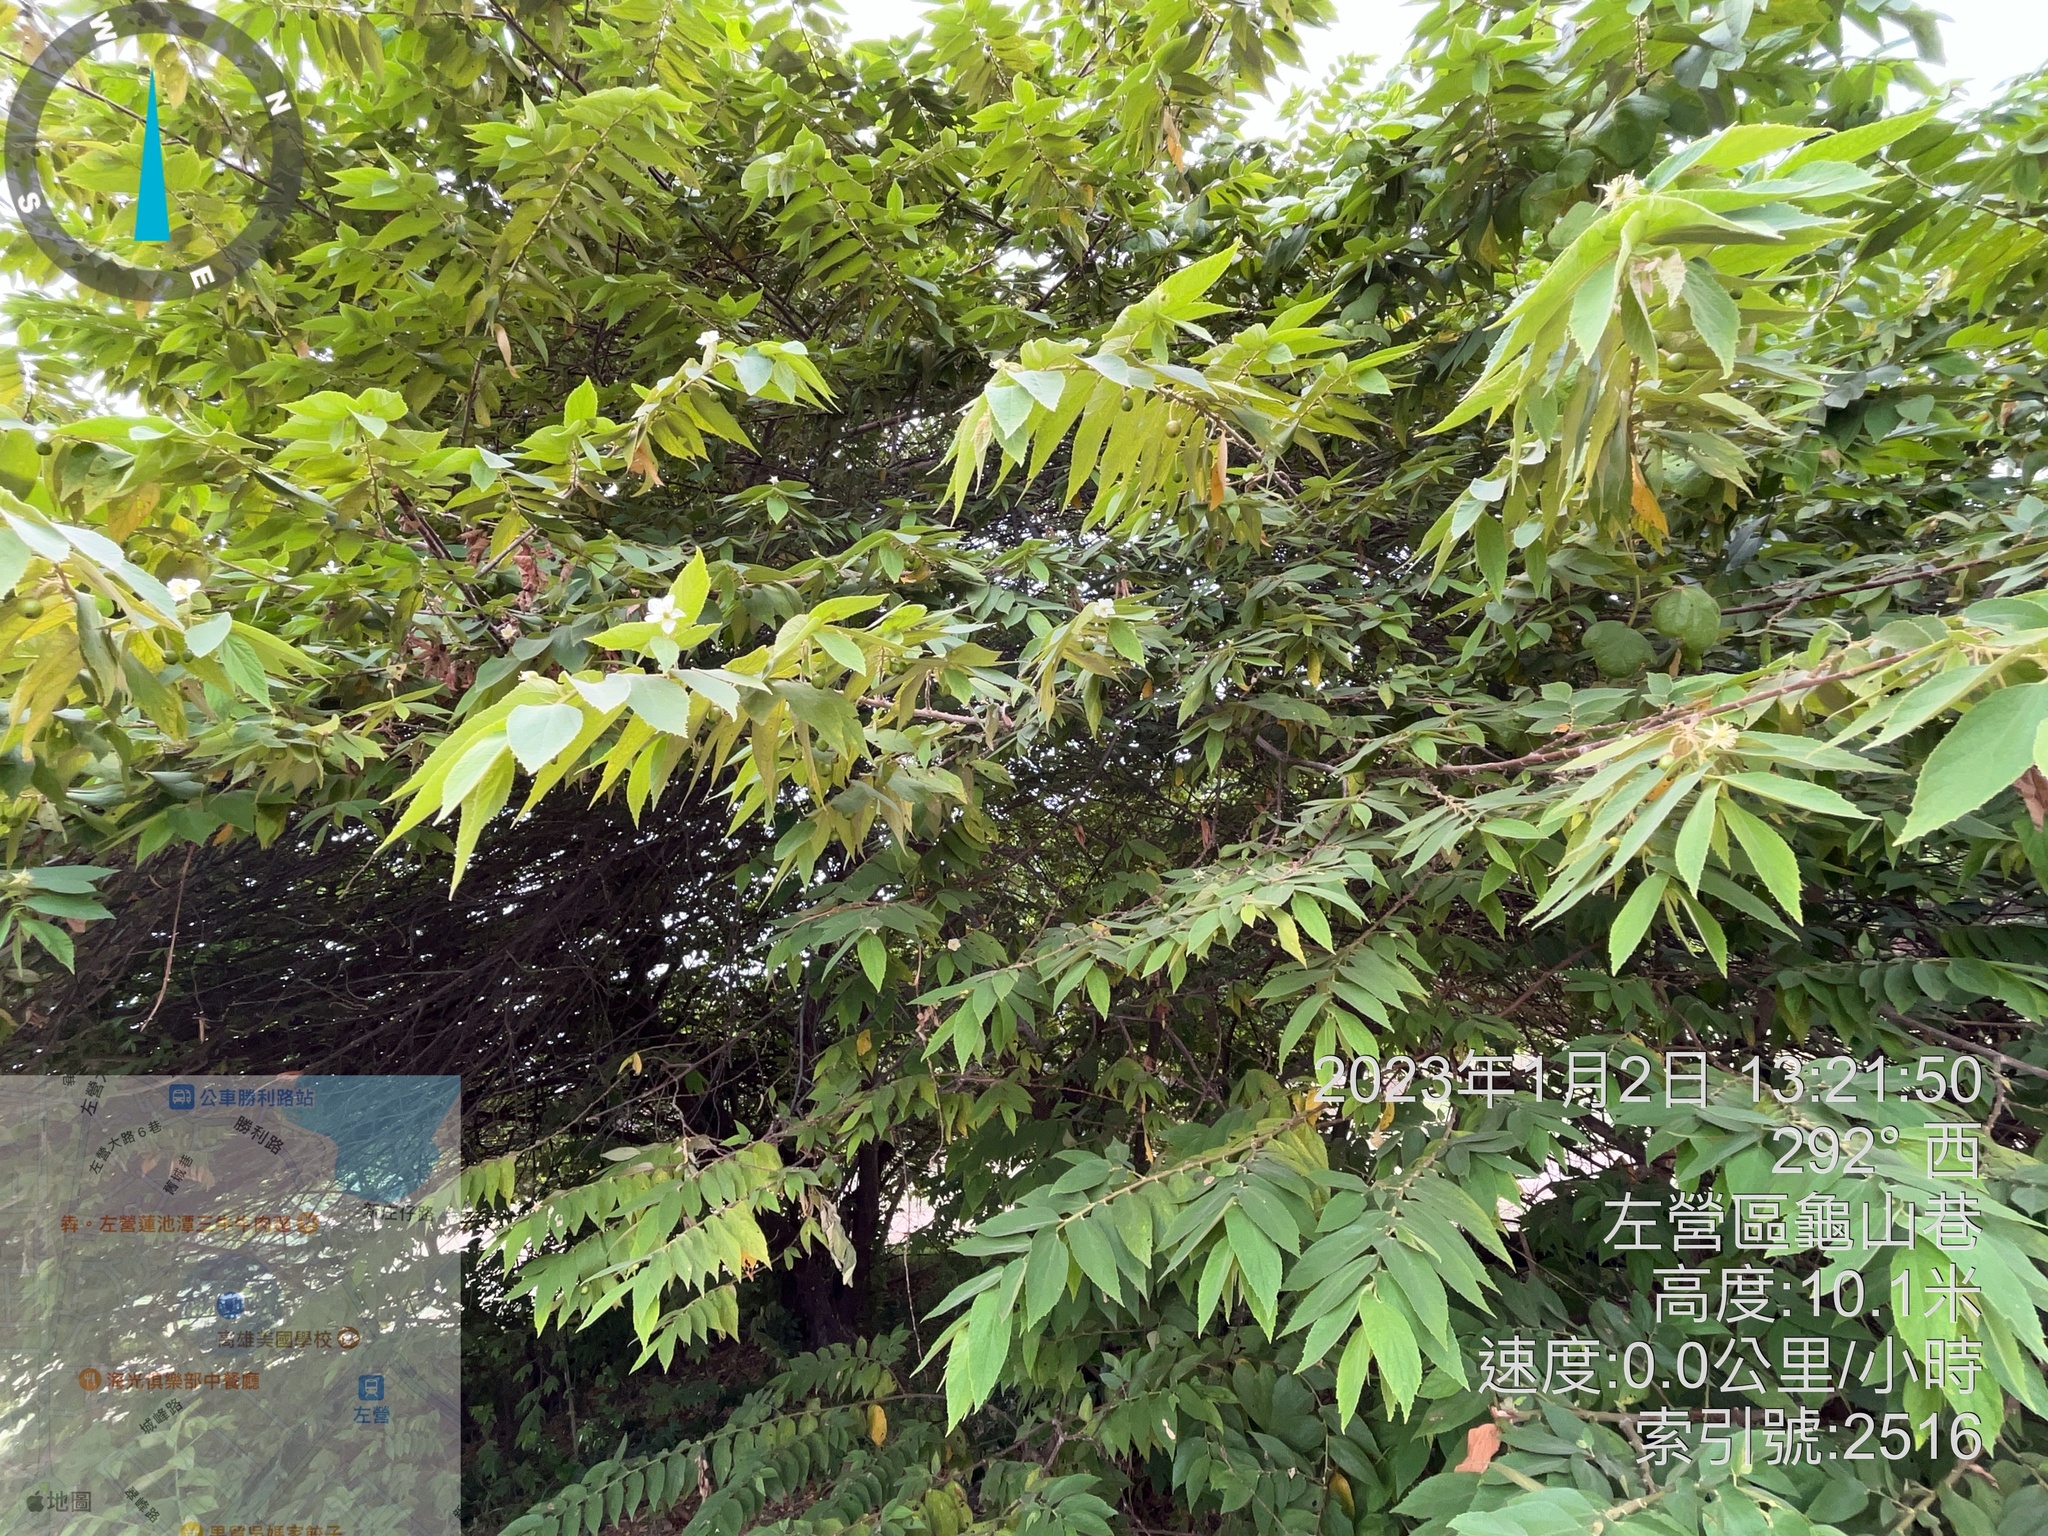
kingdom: Plantae
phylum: Tracheophyta
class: Magnoliopsida
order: Malvales
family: Muntingiaceae
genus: Muntingia
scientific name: Muntingia calabura
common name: Strawberrytree
